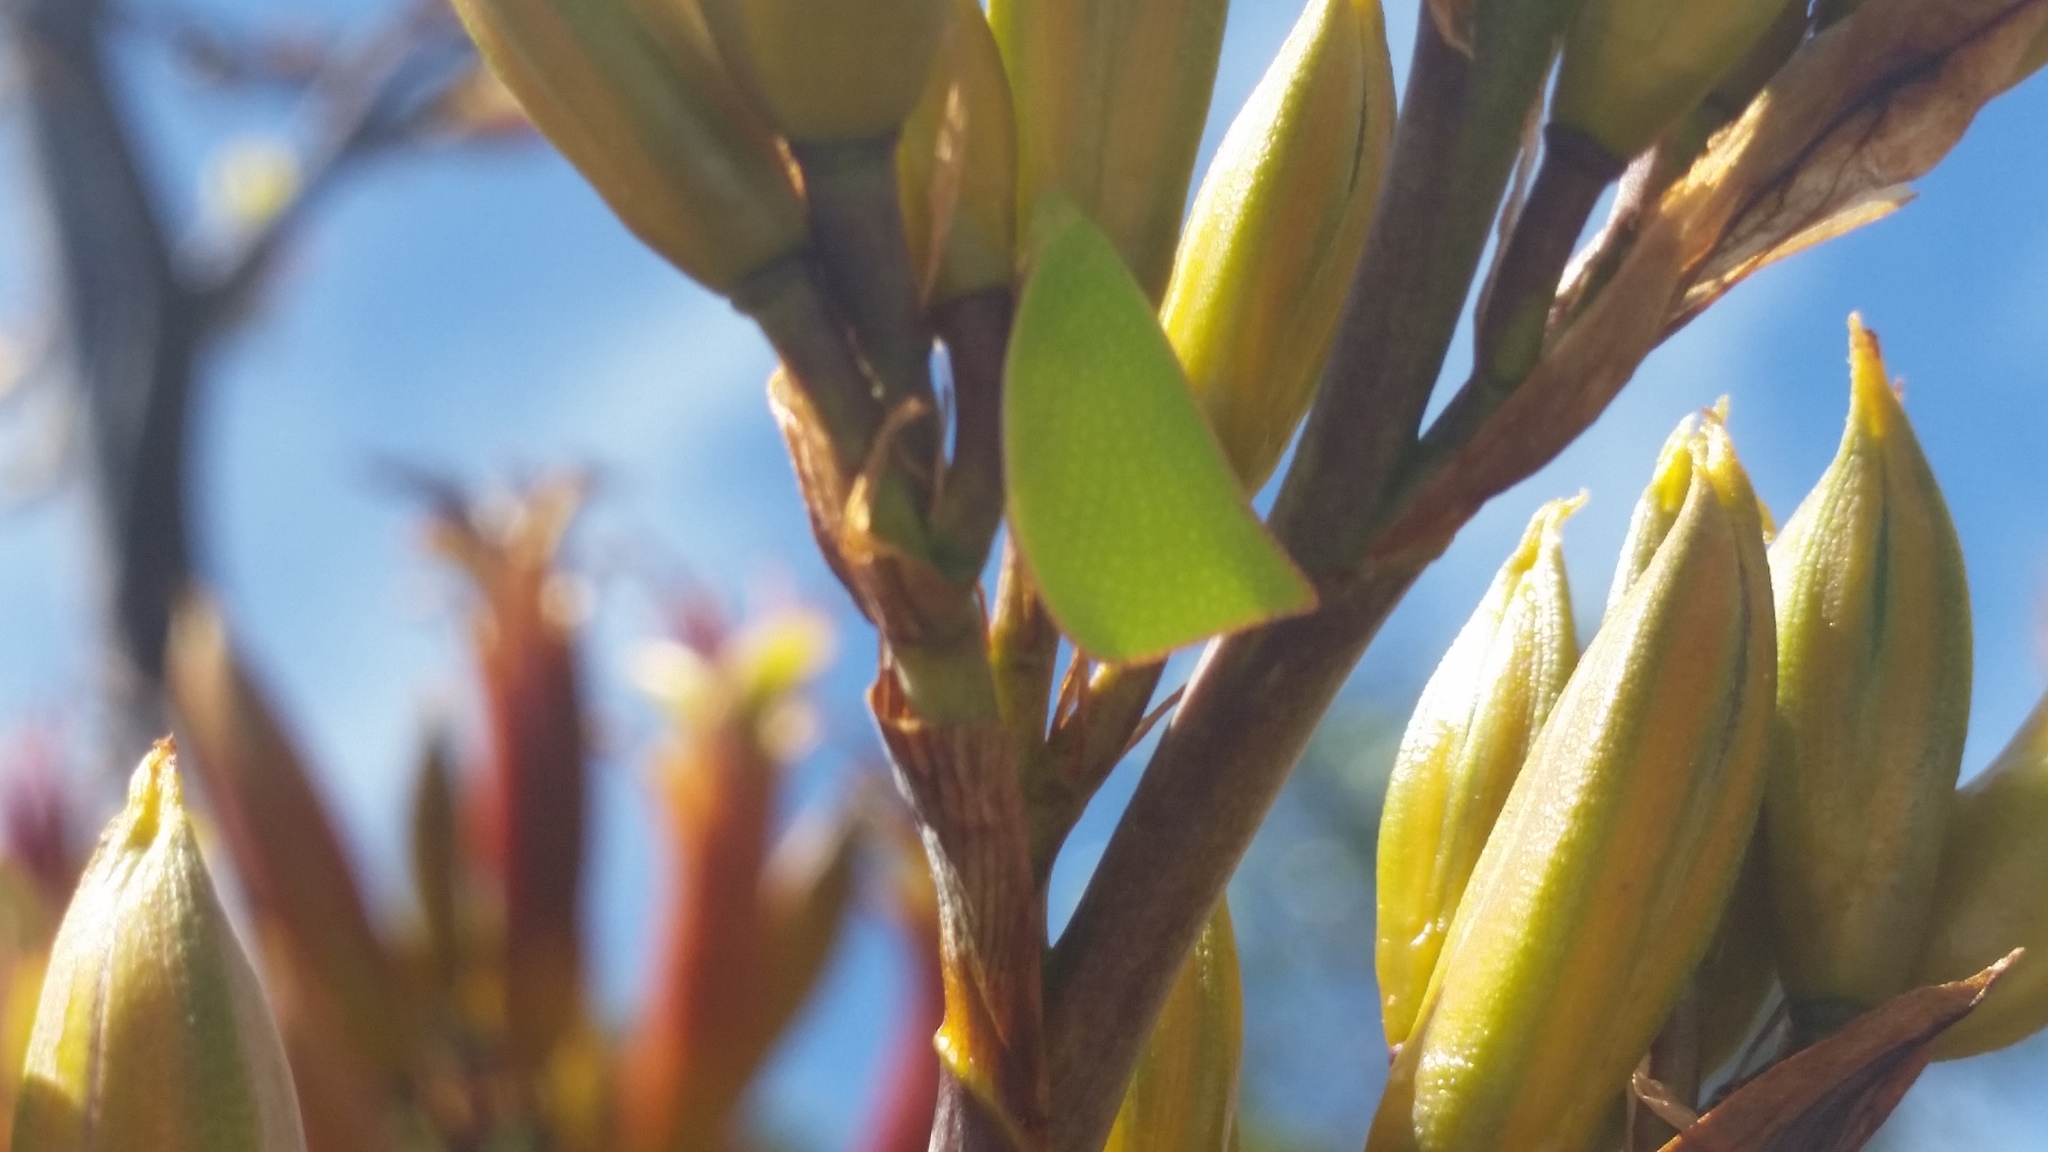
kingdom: Animalia
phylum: Arthropoda
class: Insecta
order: Hemiptera
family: Flatidae
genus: Siphanta
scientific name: Siphanta acuta
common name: Torpedo bug
